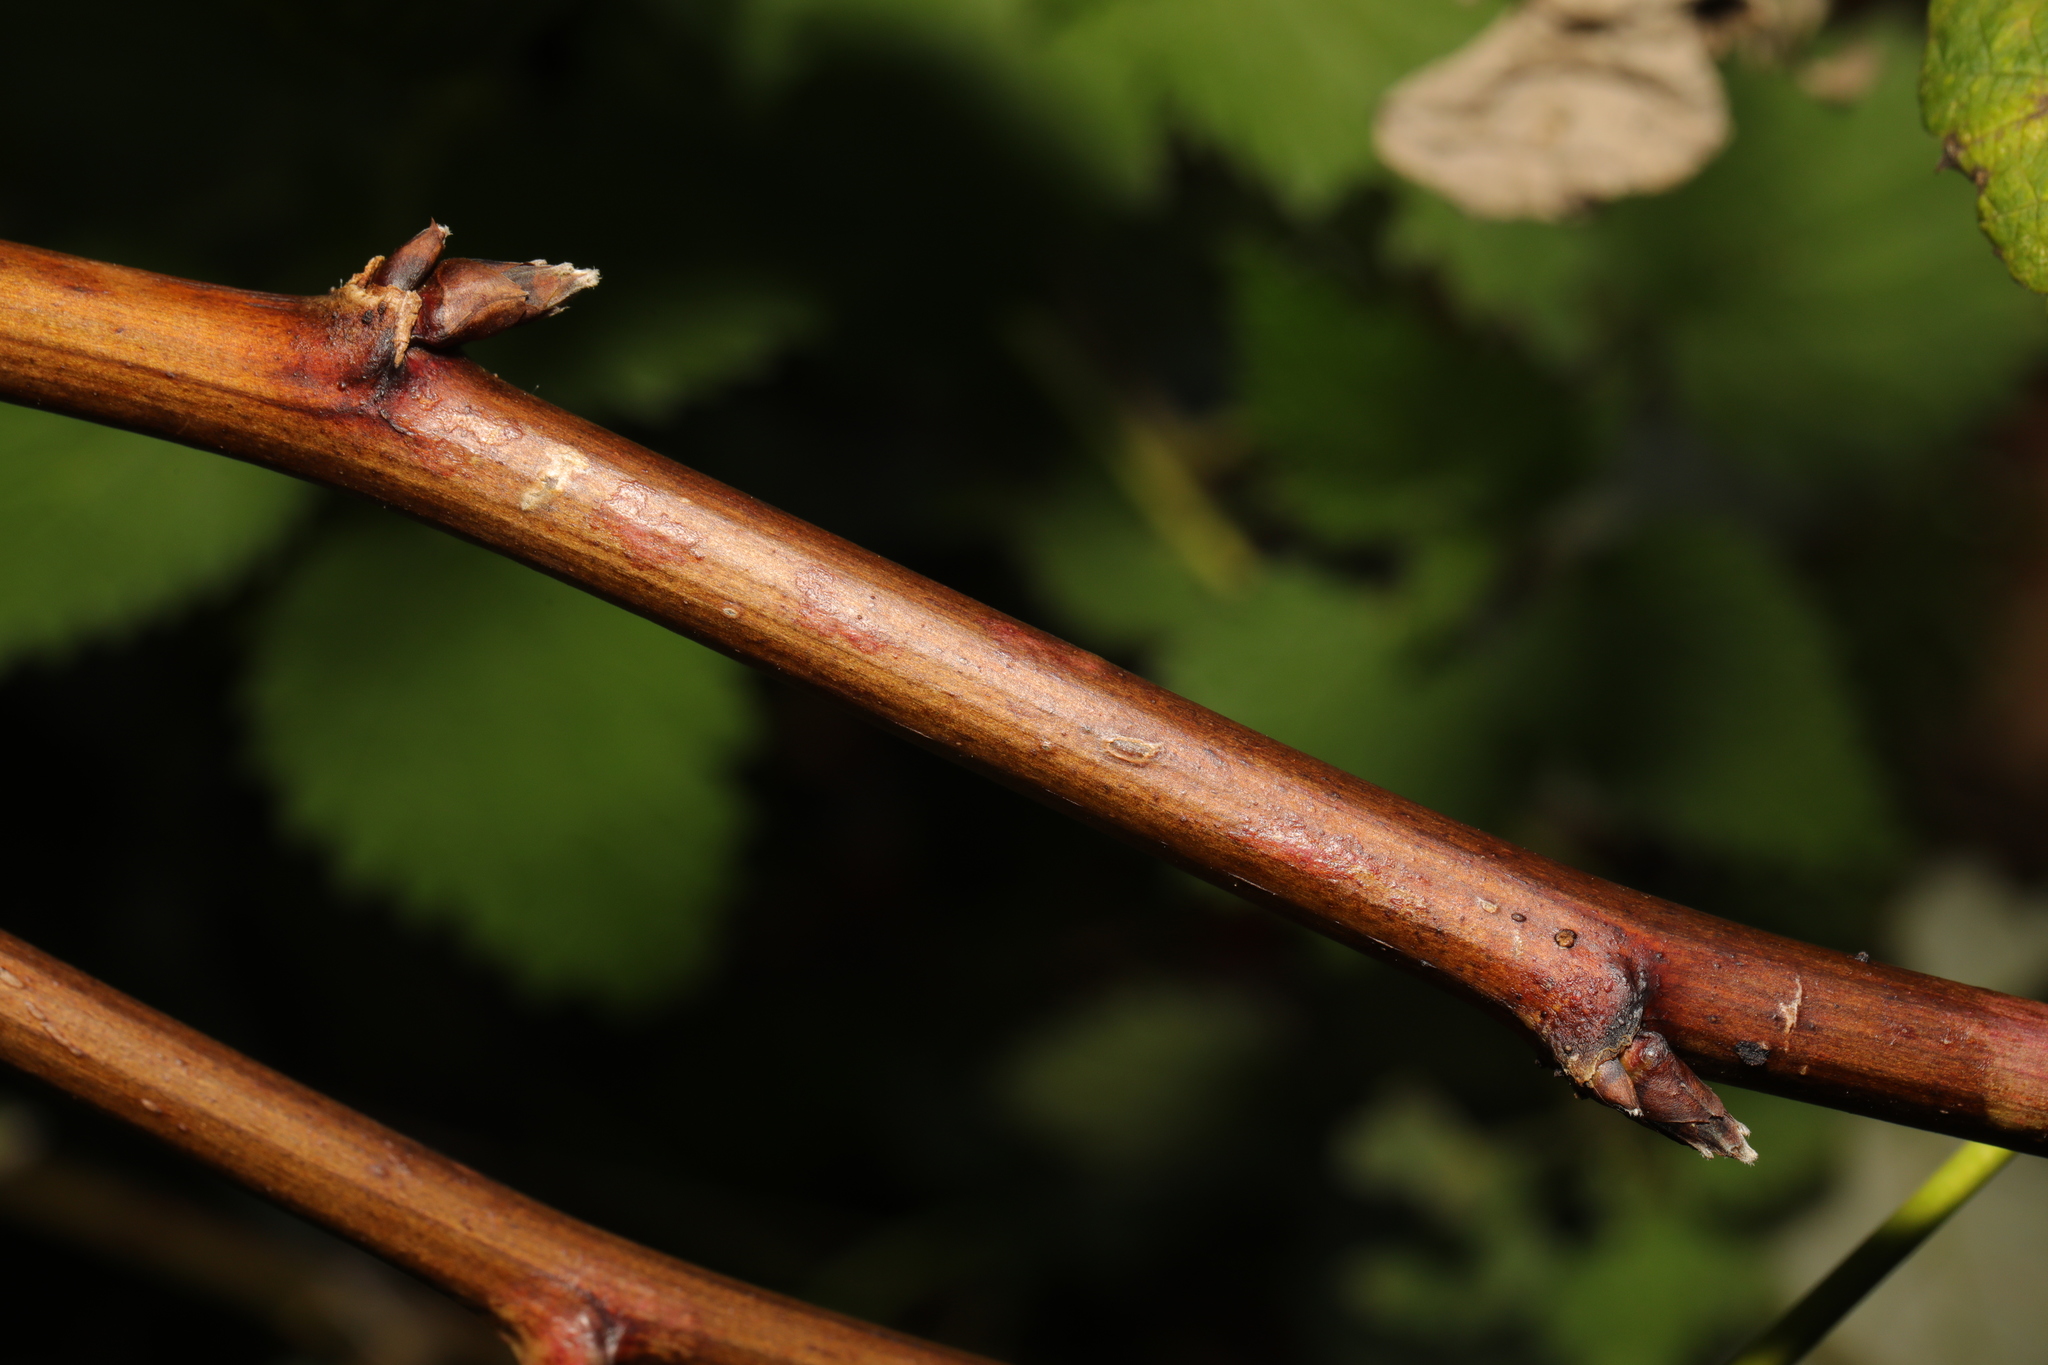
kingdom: Plantae
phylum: Tracheophyta
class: Magnoliopsida
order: Rosales
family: Rosaceae
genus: Rubus
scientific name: Rubus idaeus
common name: Raspberry
